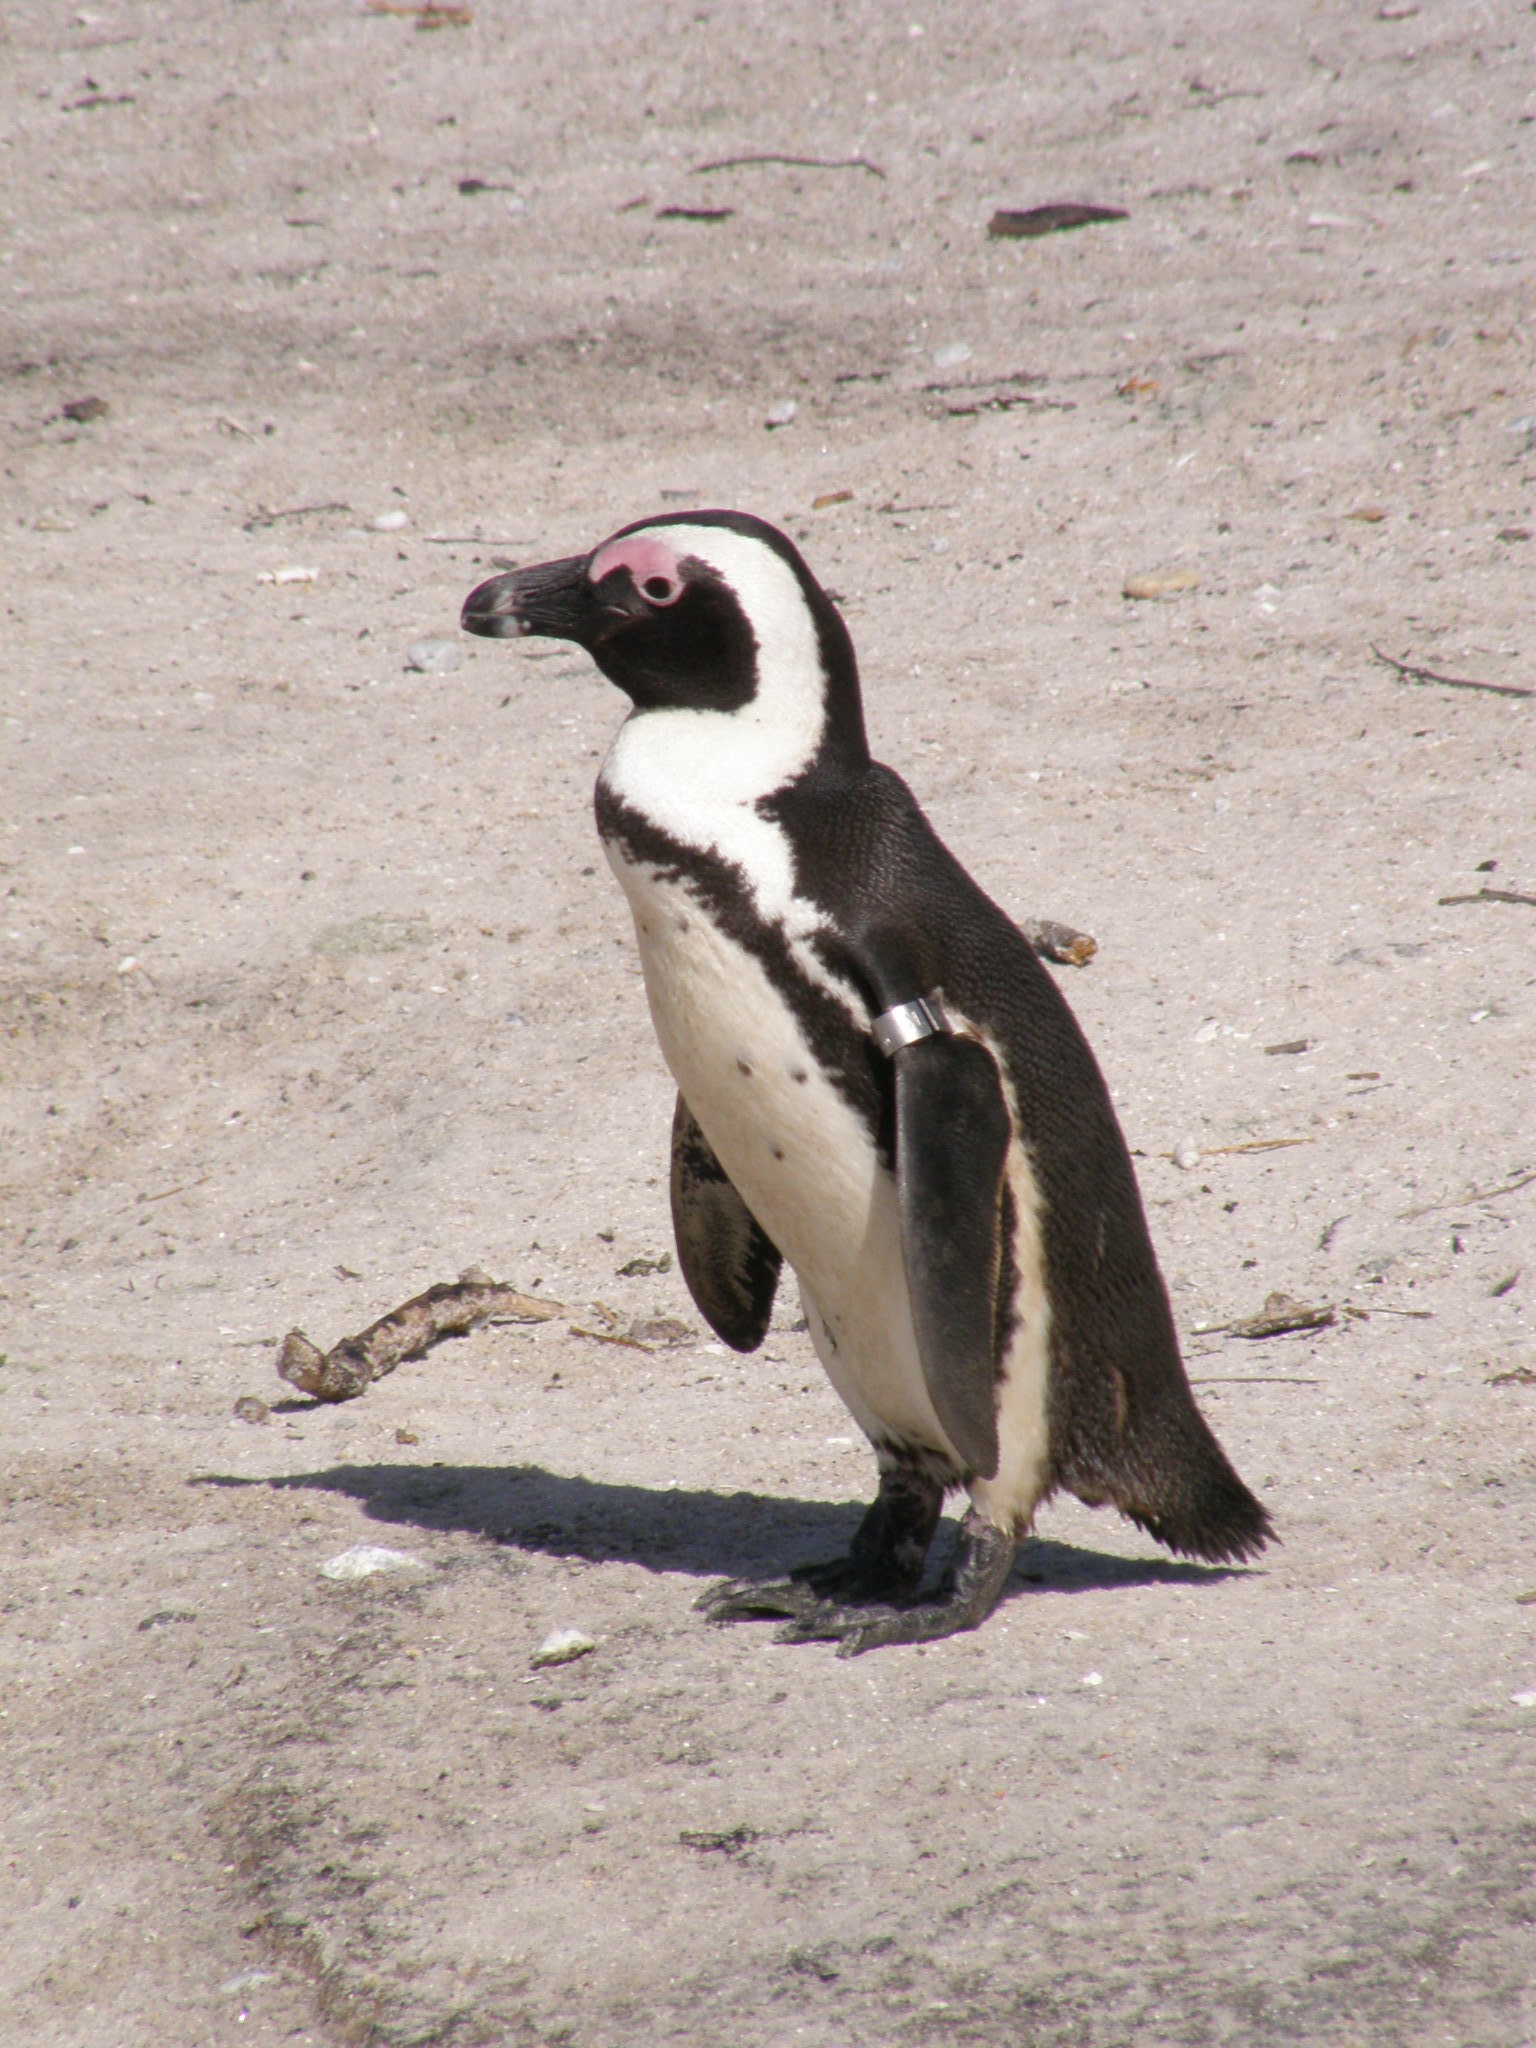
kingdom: Animalia
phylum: Chordata
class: Aves
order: Sphenisciformes
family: Spheniscidae
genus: Spheniscus
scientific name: Spheniscus demersus
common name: African penguin
